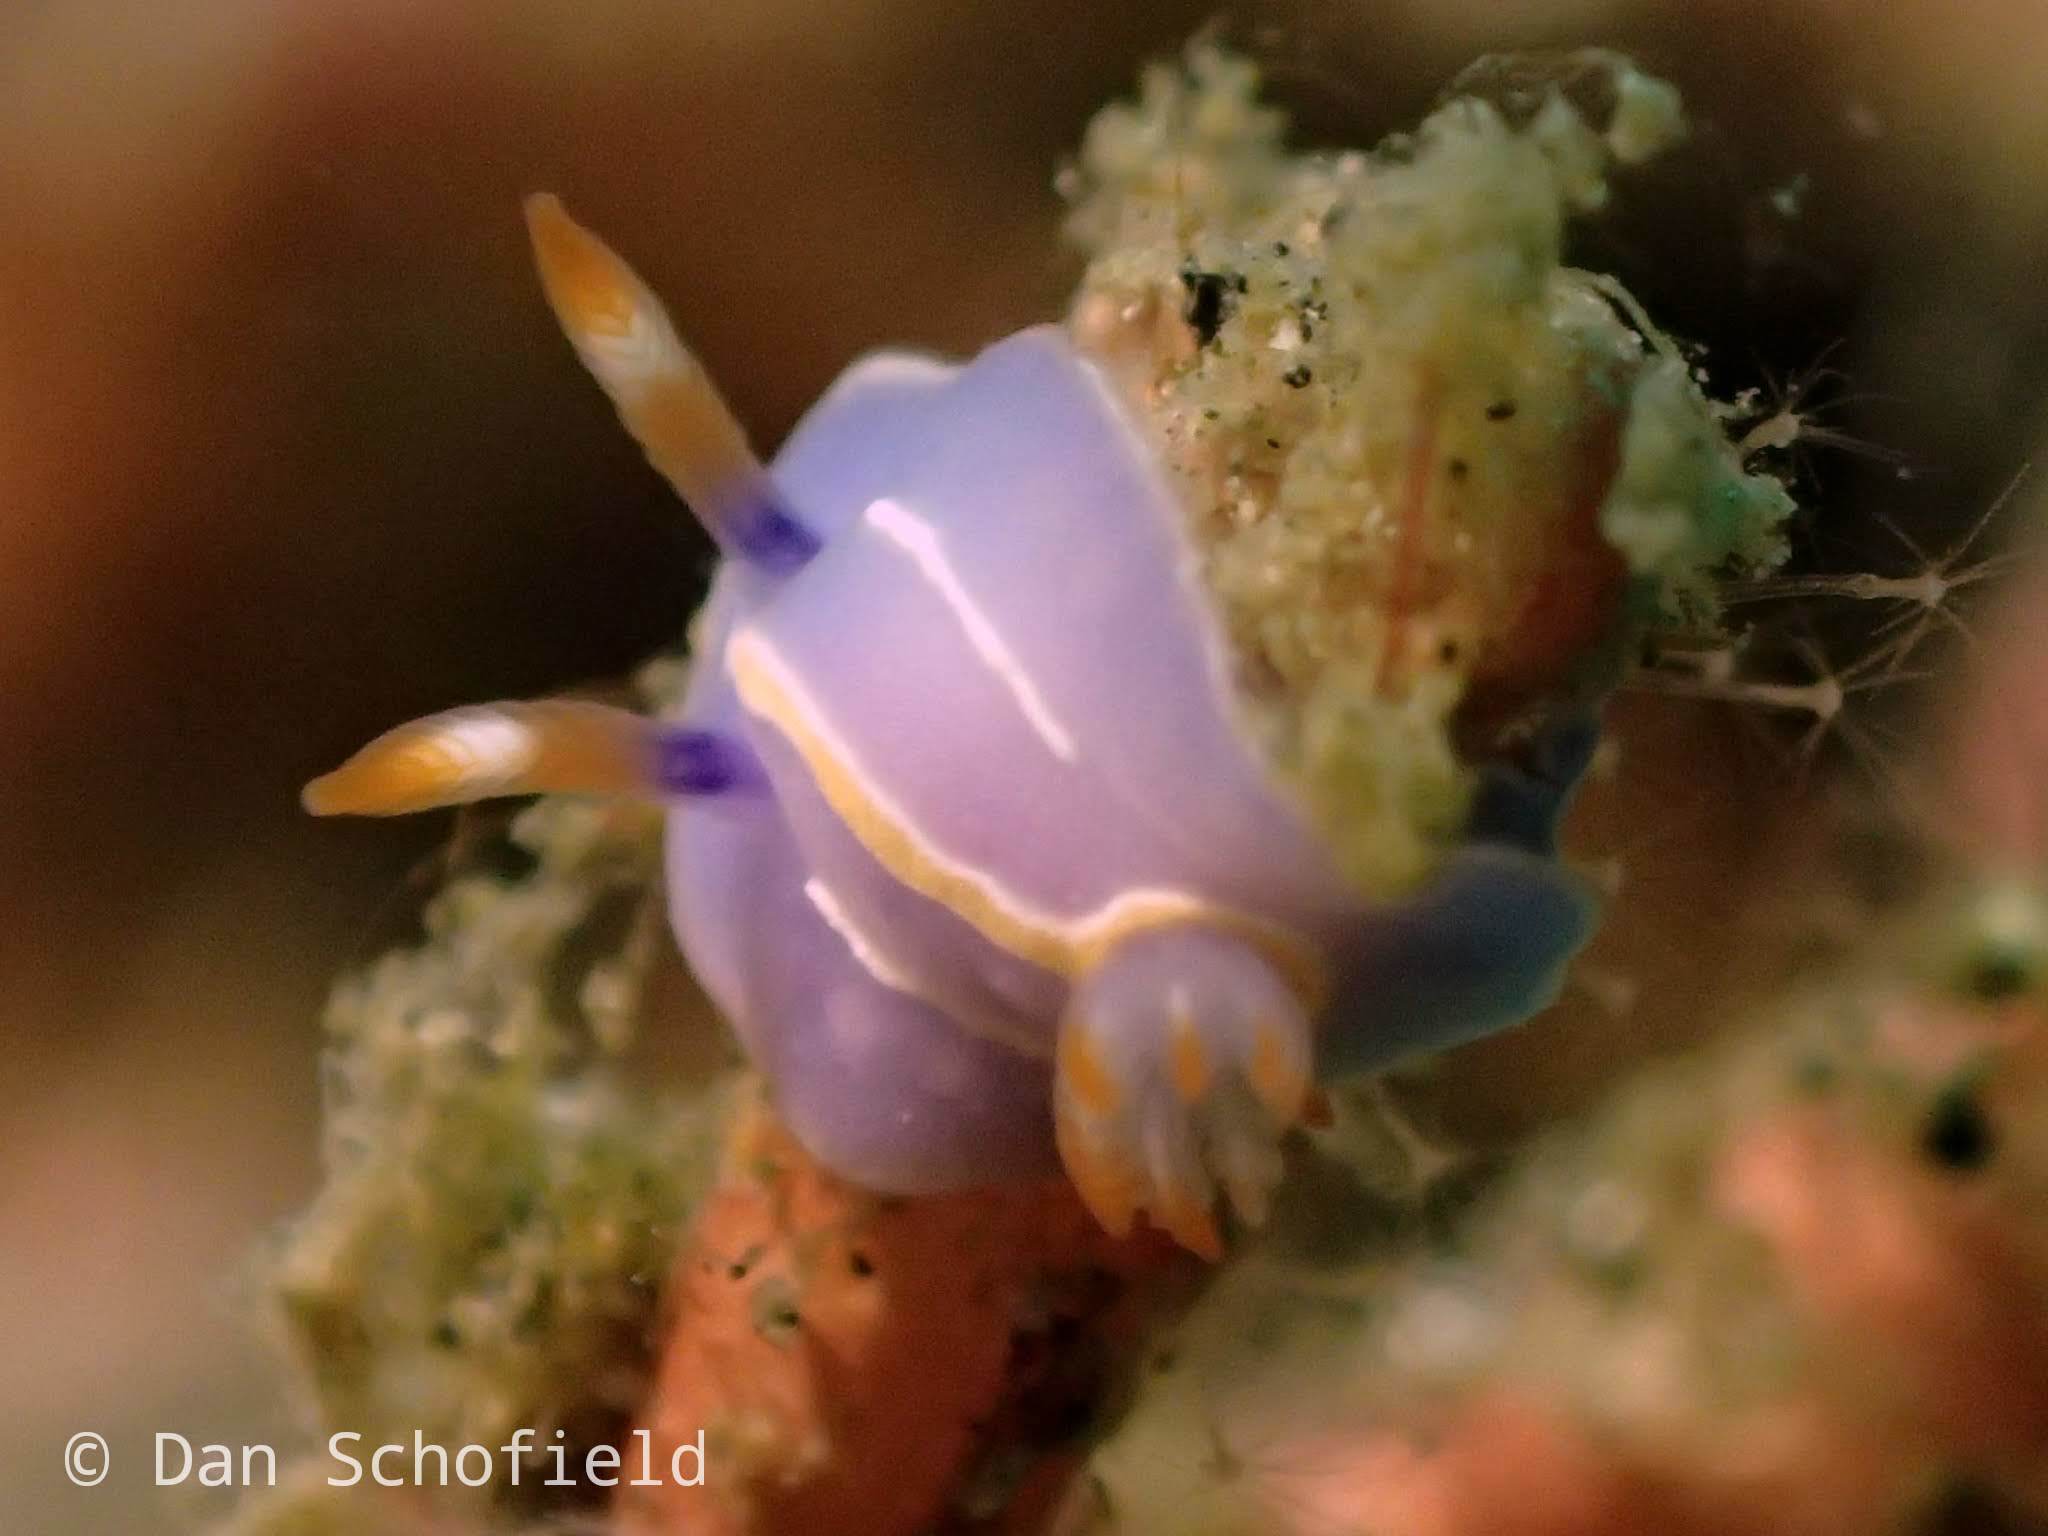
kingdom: Animalia
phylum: Mollusca
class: Gastropoda
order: Nudibranchia
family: Chromodorididae
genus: Mexichromis
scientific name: Mexichromis trilineata
